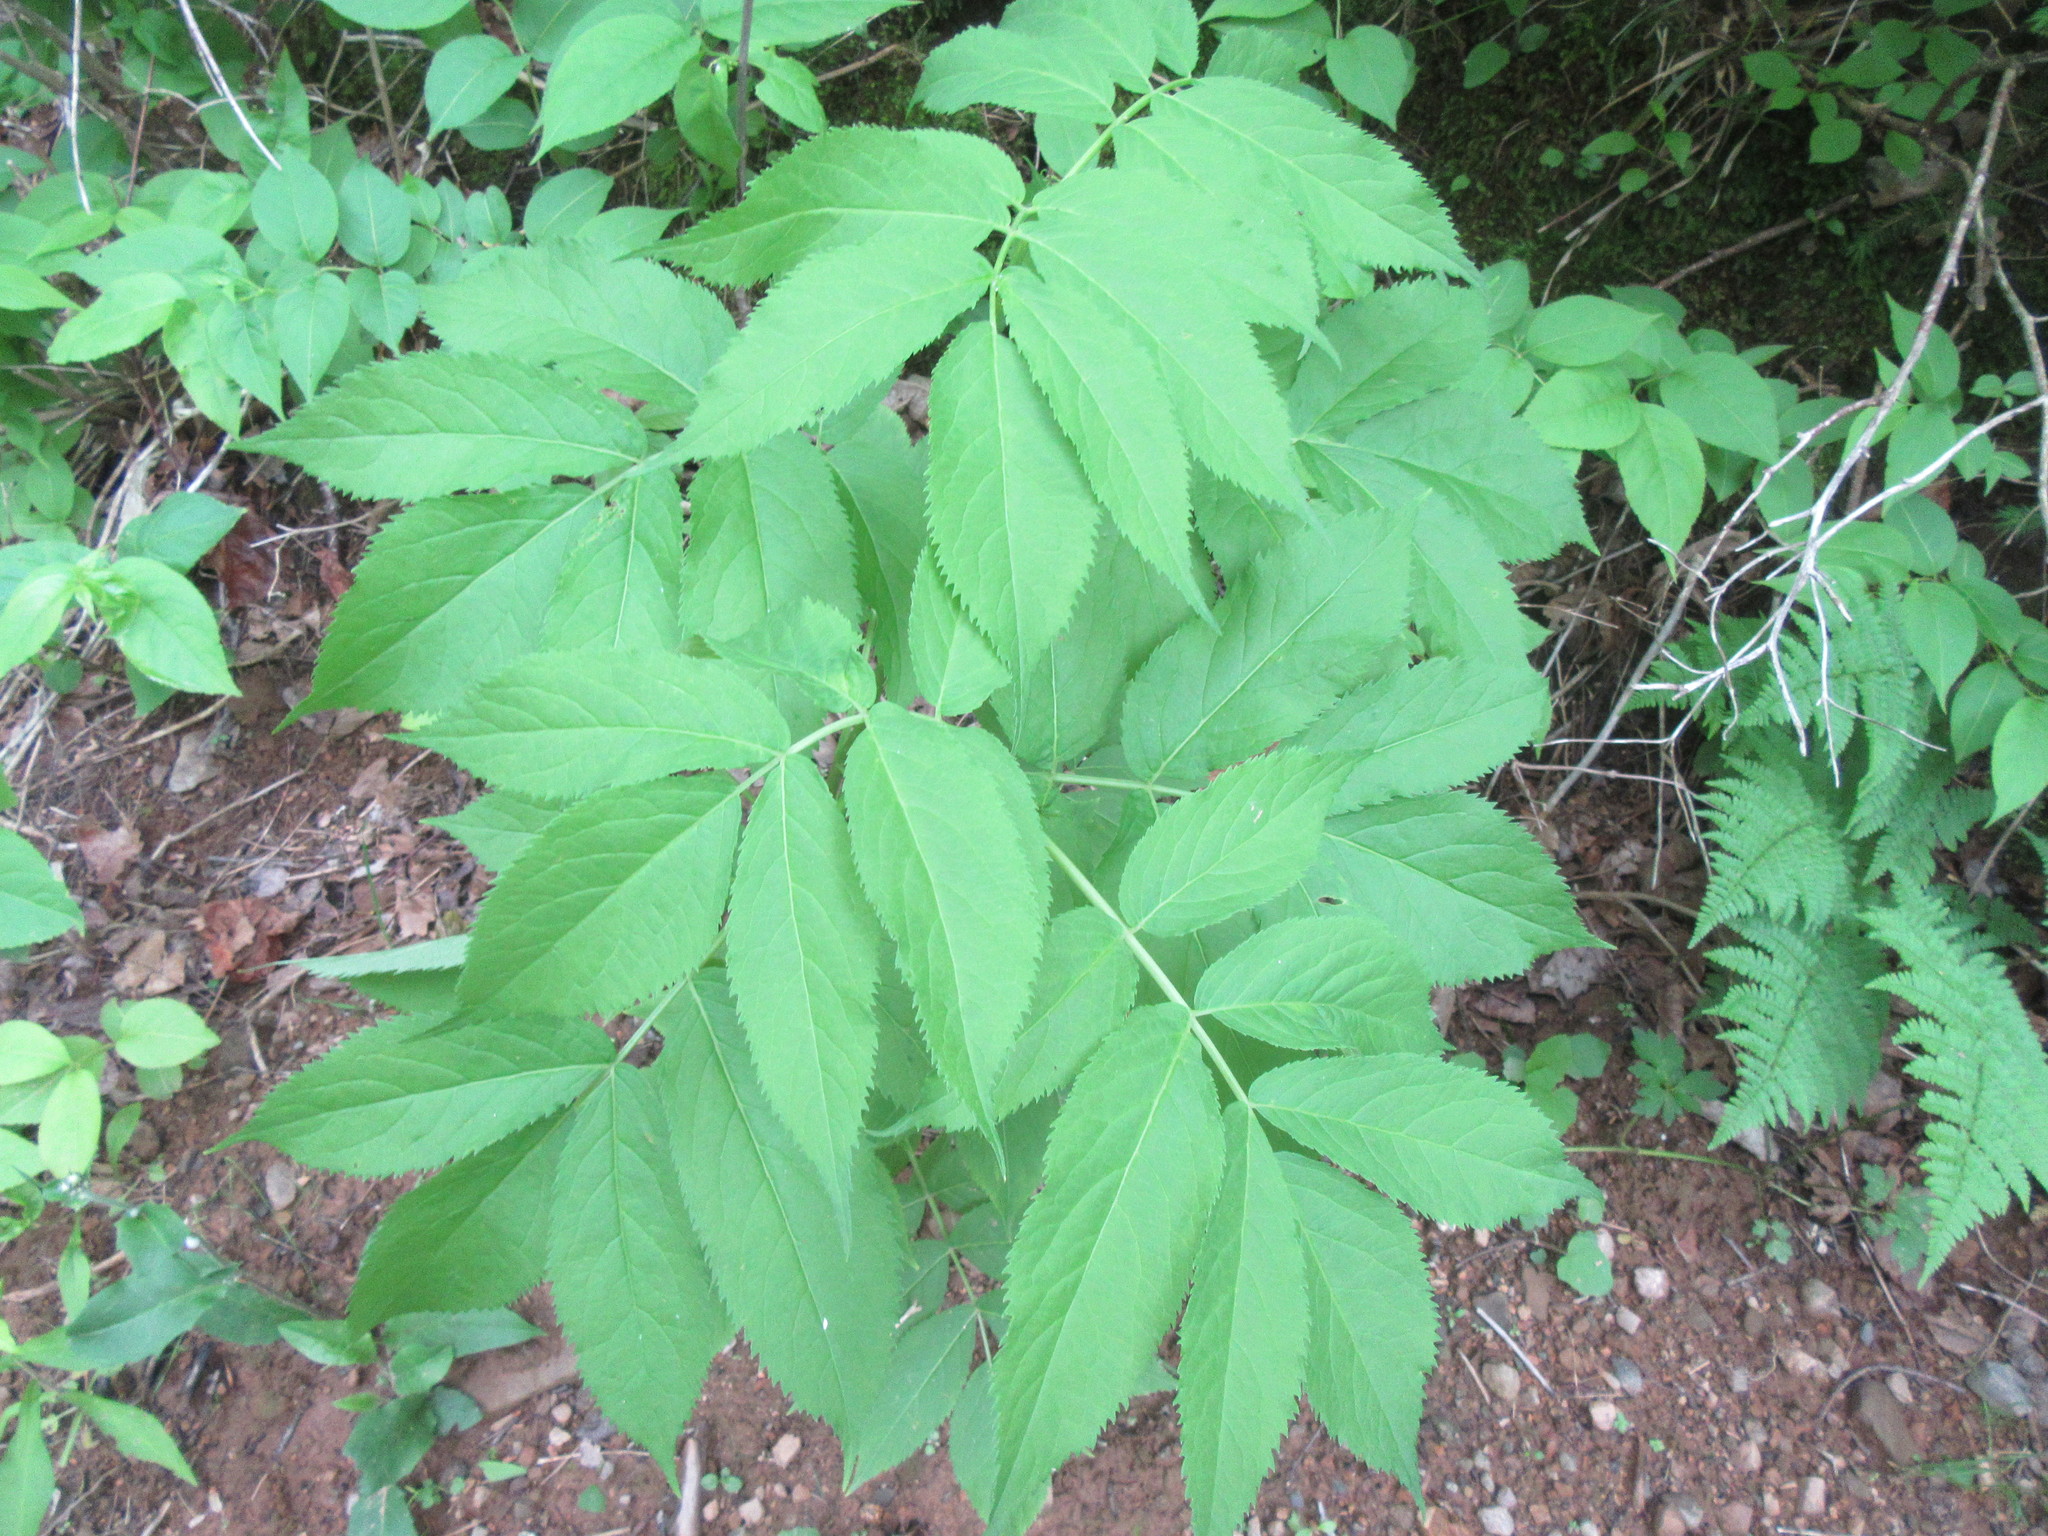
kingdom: Plantae
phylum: Tracheophyta
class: Magnoliopsida
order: Dipsacales
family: Viburnaceae
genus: Sambucus
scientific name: Sambucus racemosa
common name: Red-berried elder
